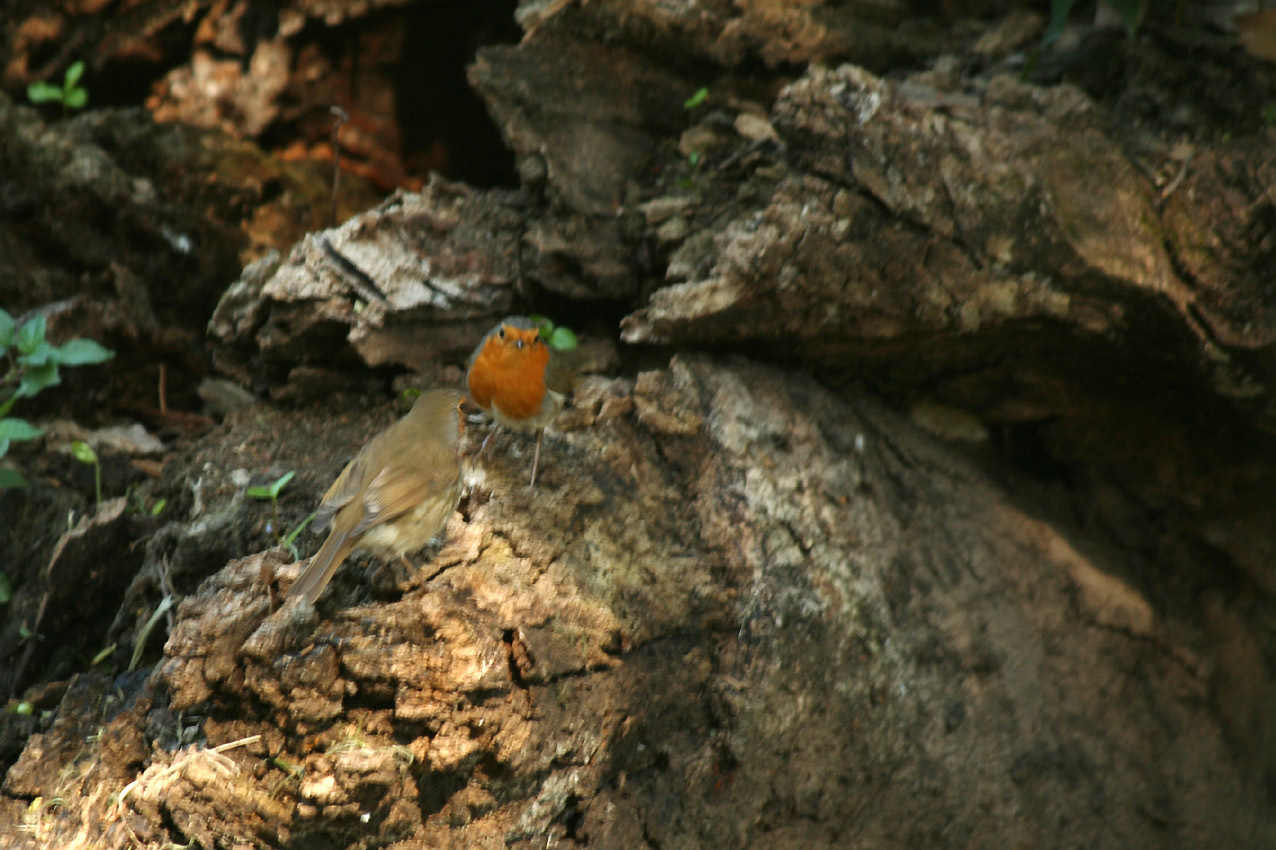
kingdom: Animalia
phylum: Chordata
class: Aves
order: Passeriformes
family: Muscicapidae
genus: Erithacus
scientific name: Erithacus rubecula
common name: European robin
